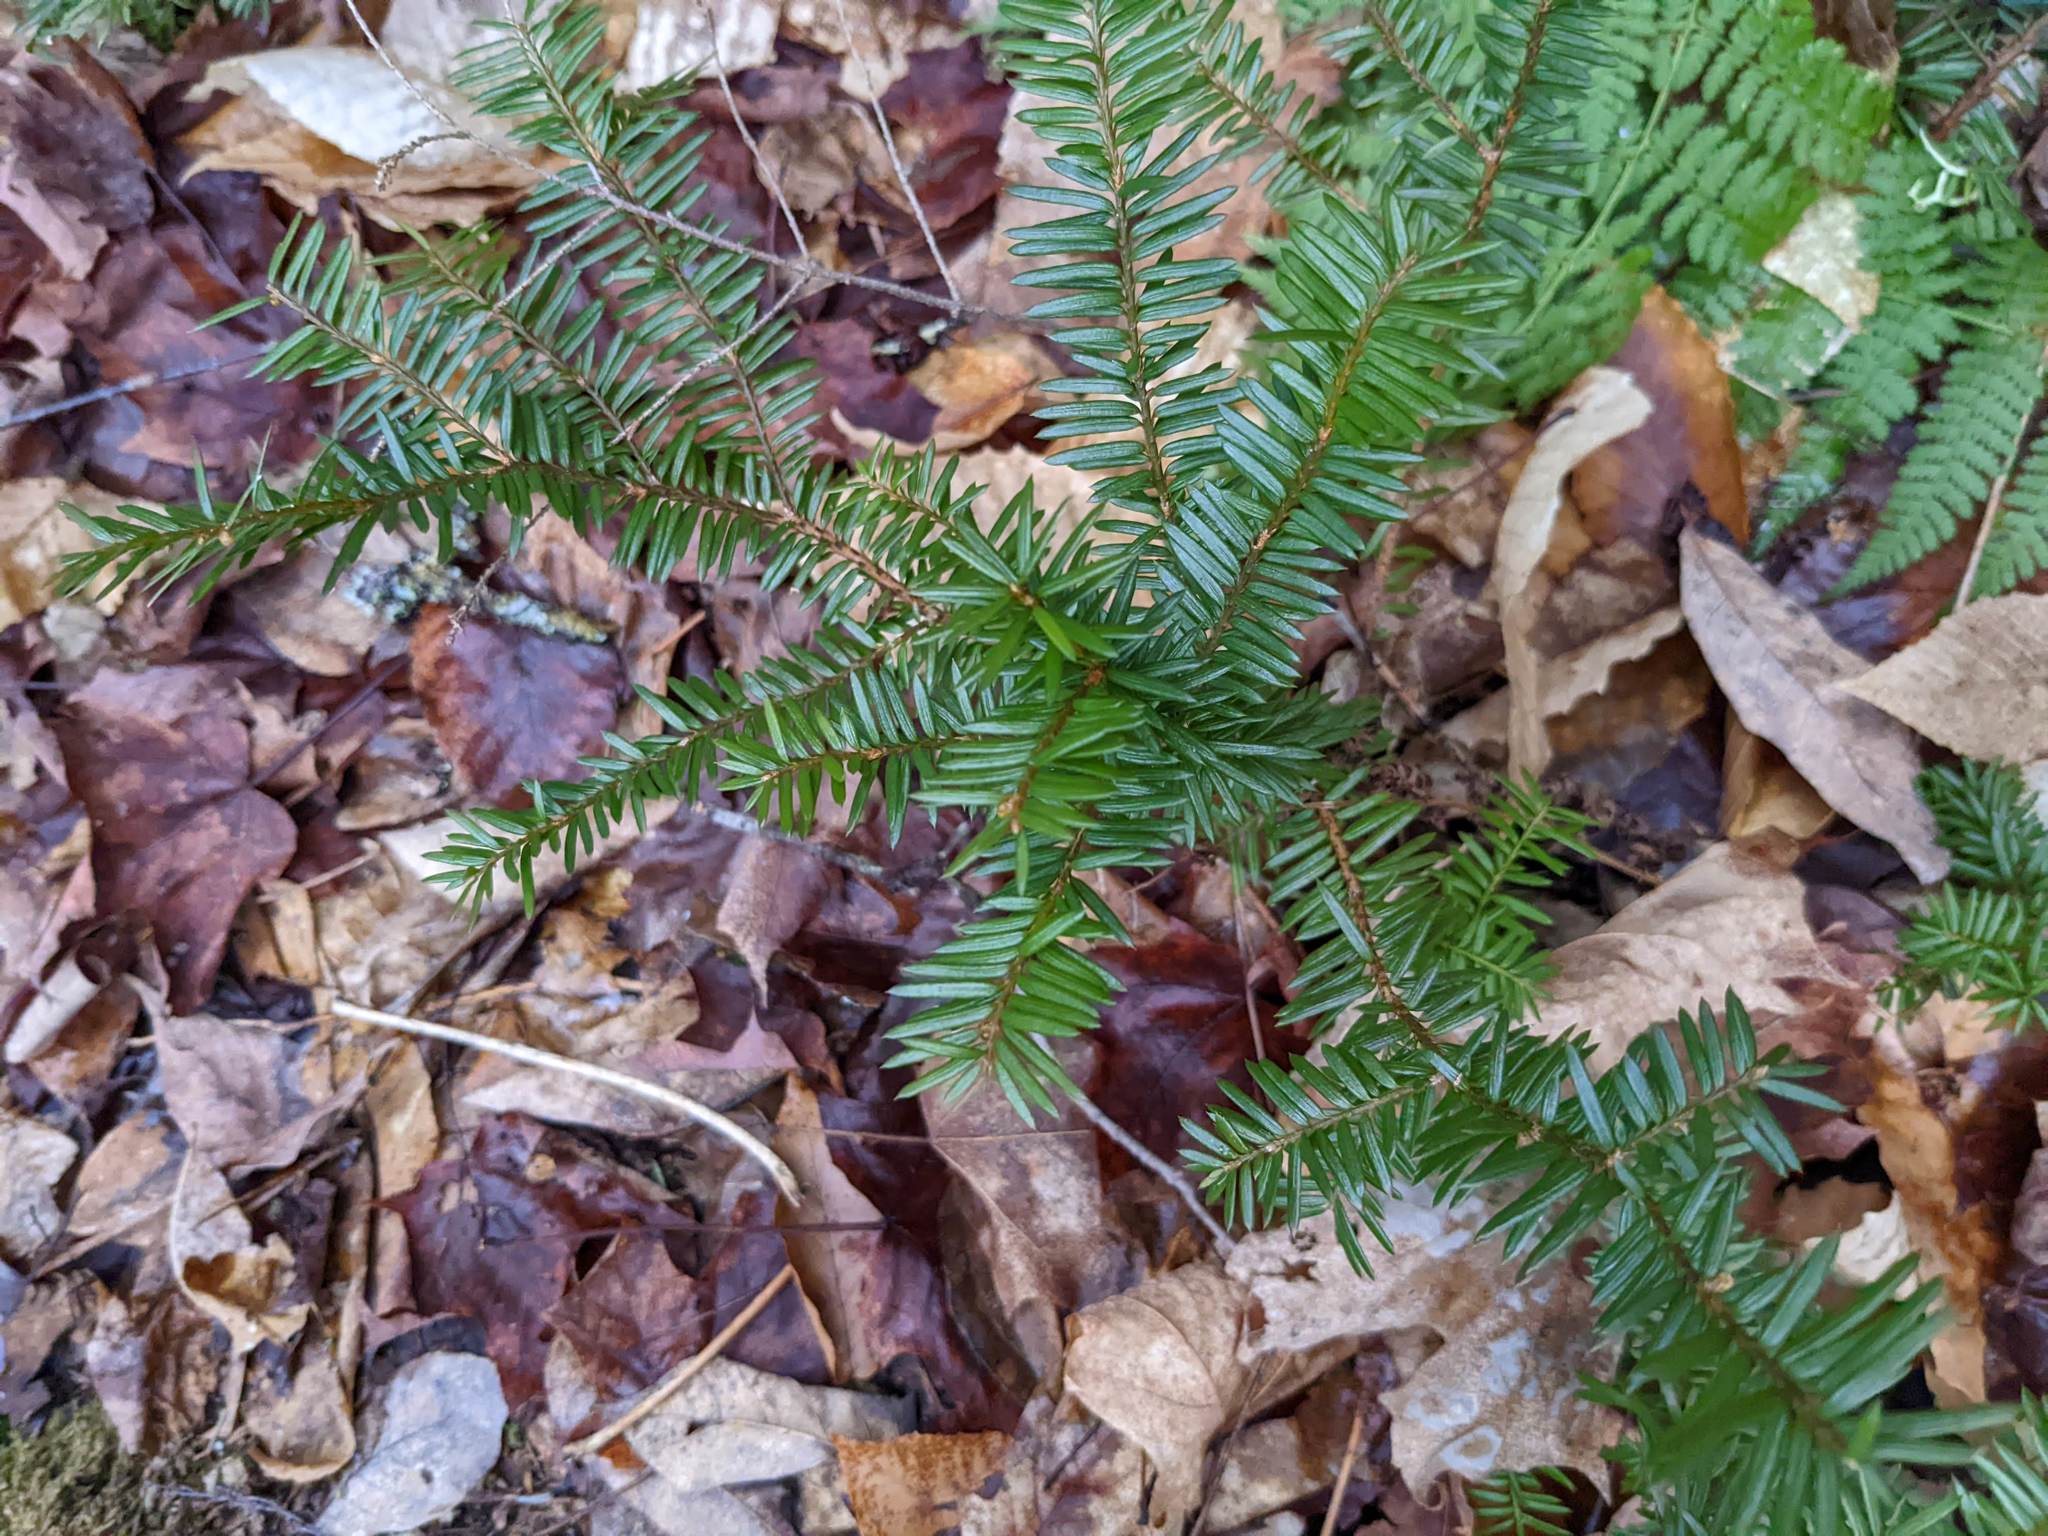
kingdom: Plantae
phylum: Tracheophyta
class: Pinopsida
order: Pinales
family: Taxaceae
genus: Taxus
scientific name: Taxus canadensis
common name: American yew
